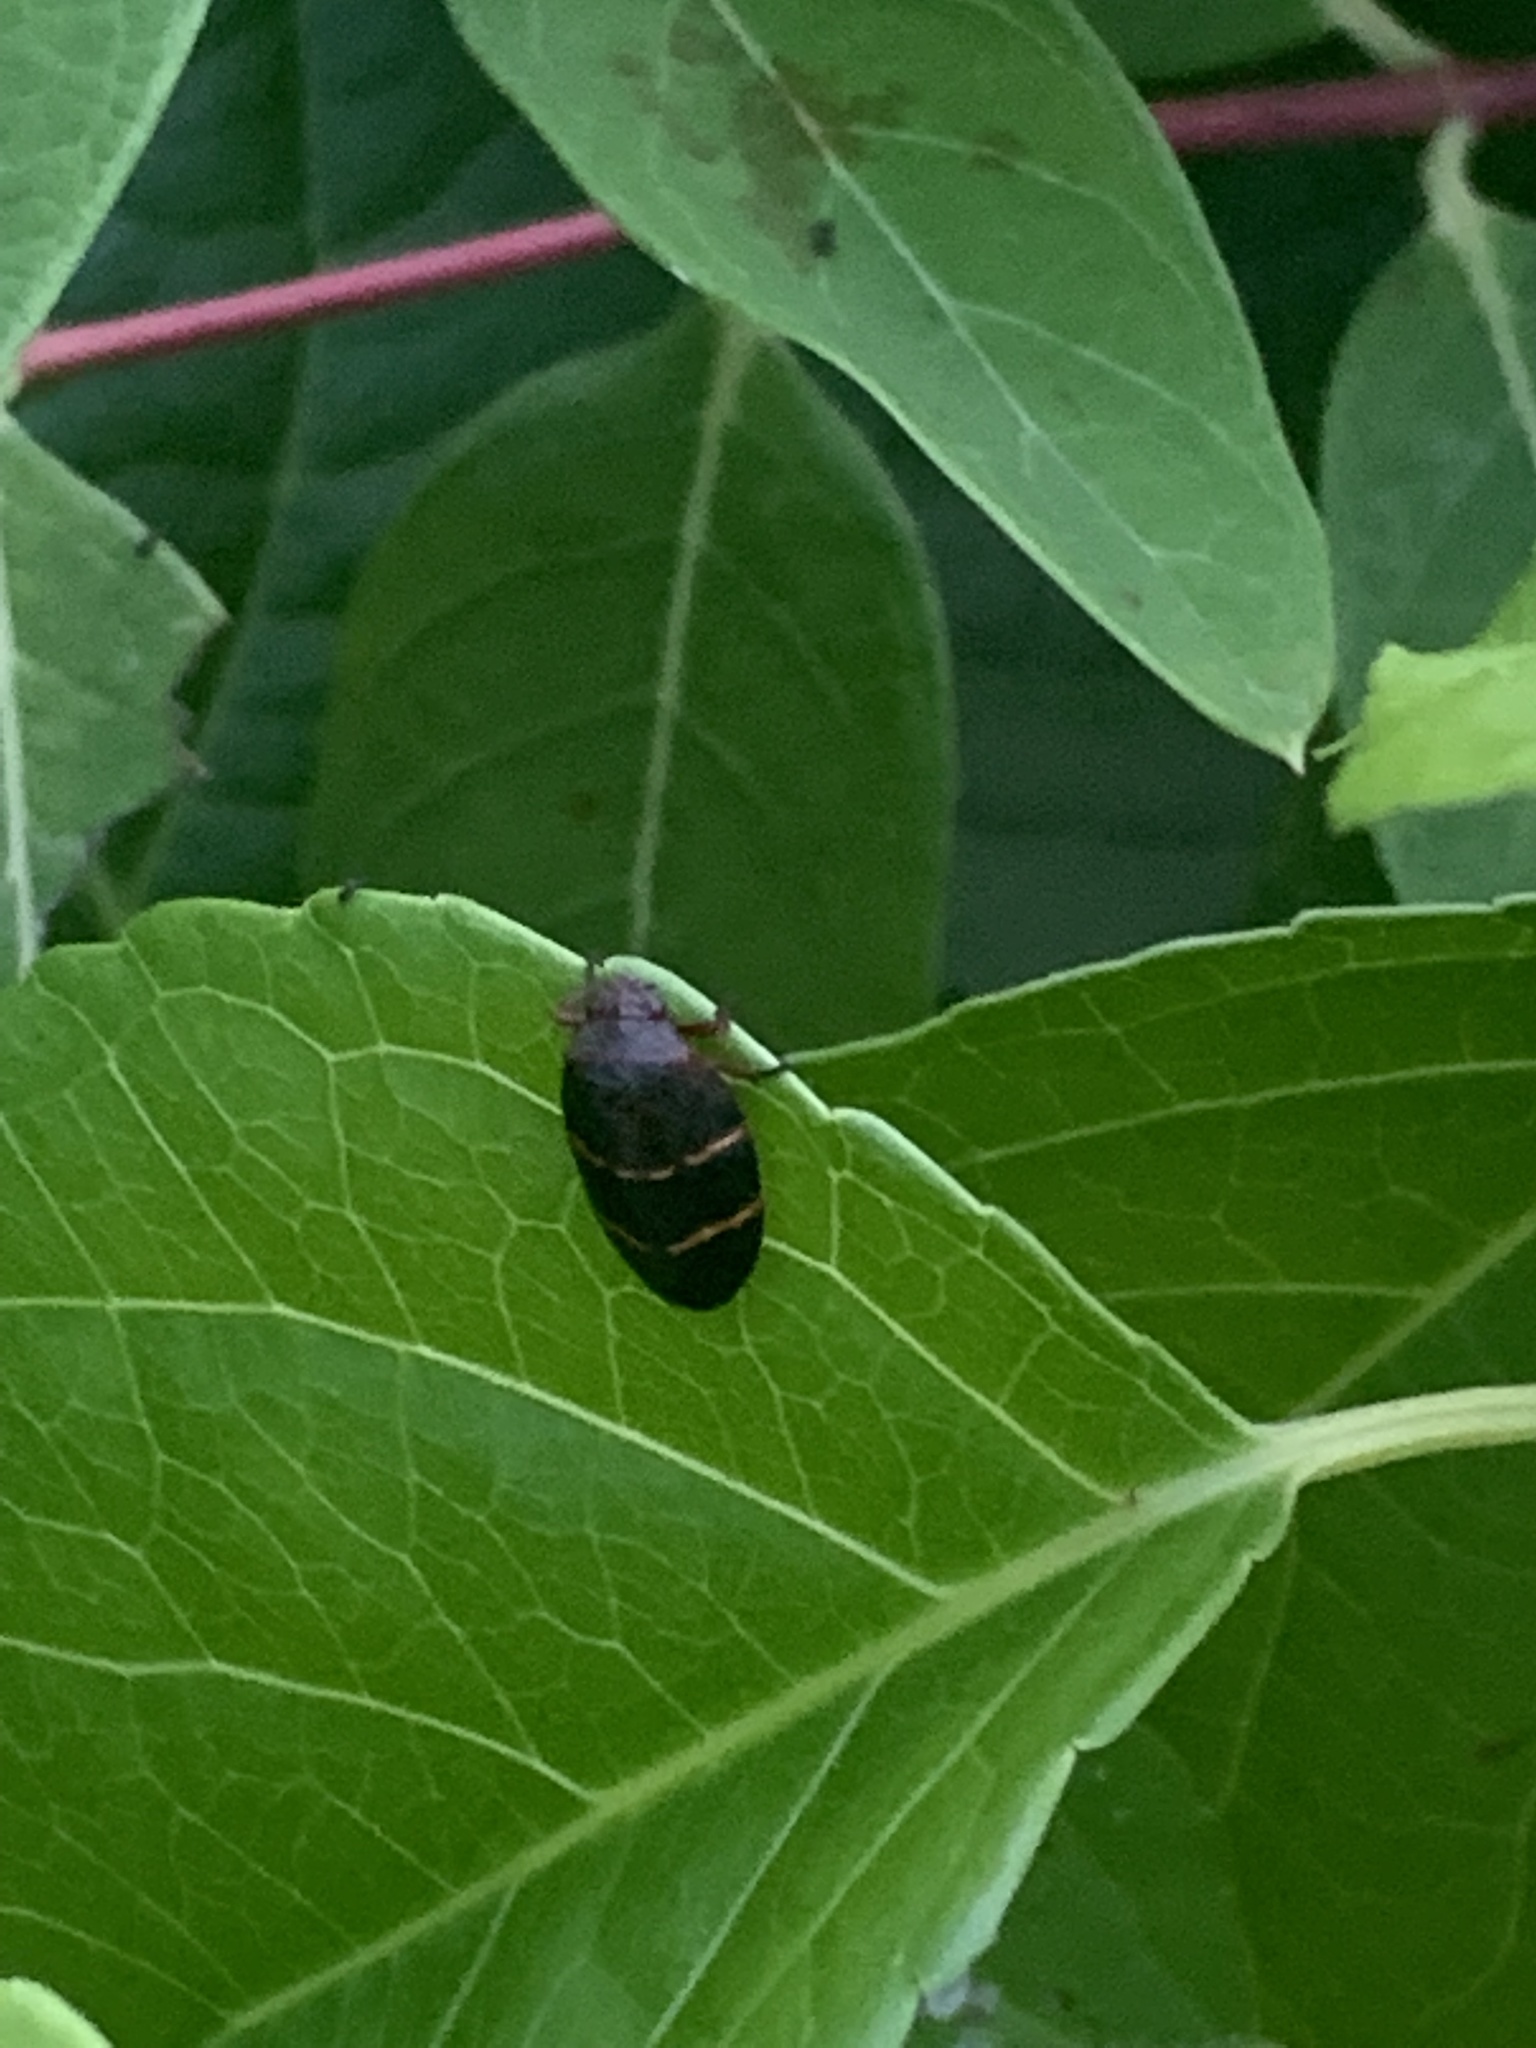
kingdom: Animalia
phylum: Arthropoda
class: Insecta
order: Hemiptera
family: Cercopidae
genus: Prosapia
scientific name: Prosapia bicincta
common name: Twolined spittlebug
